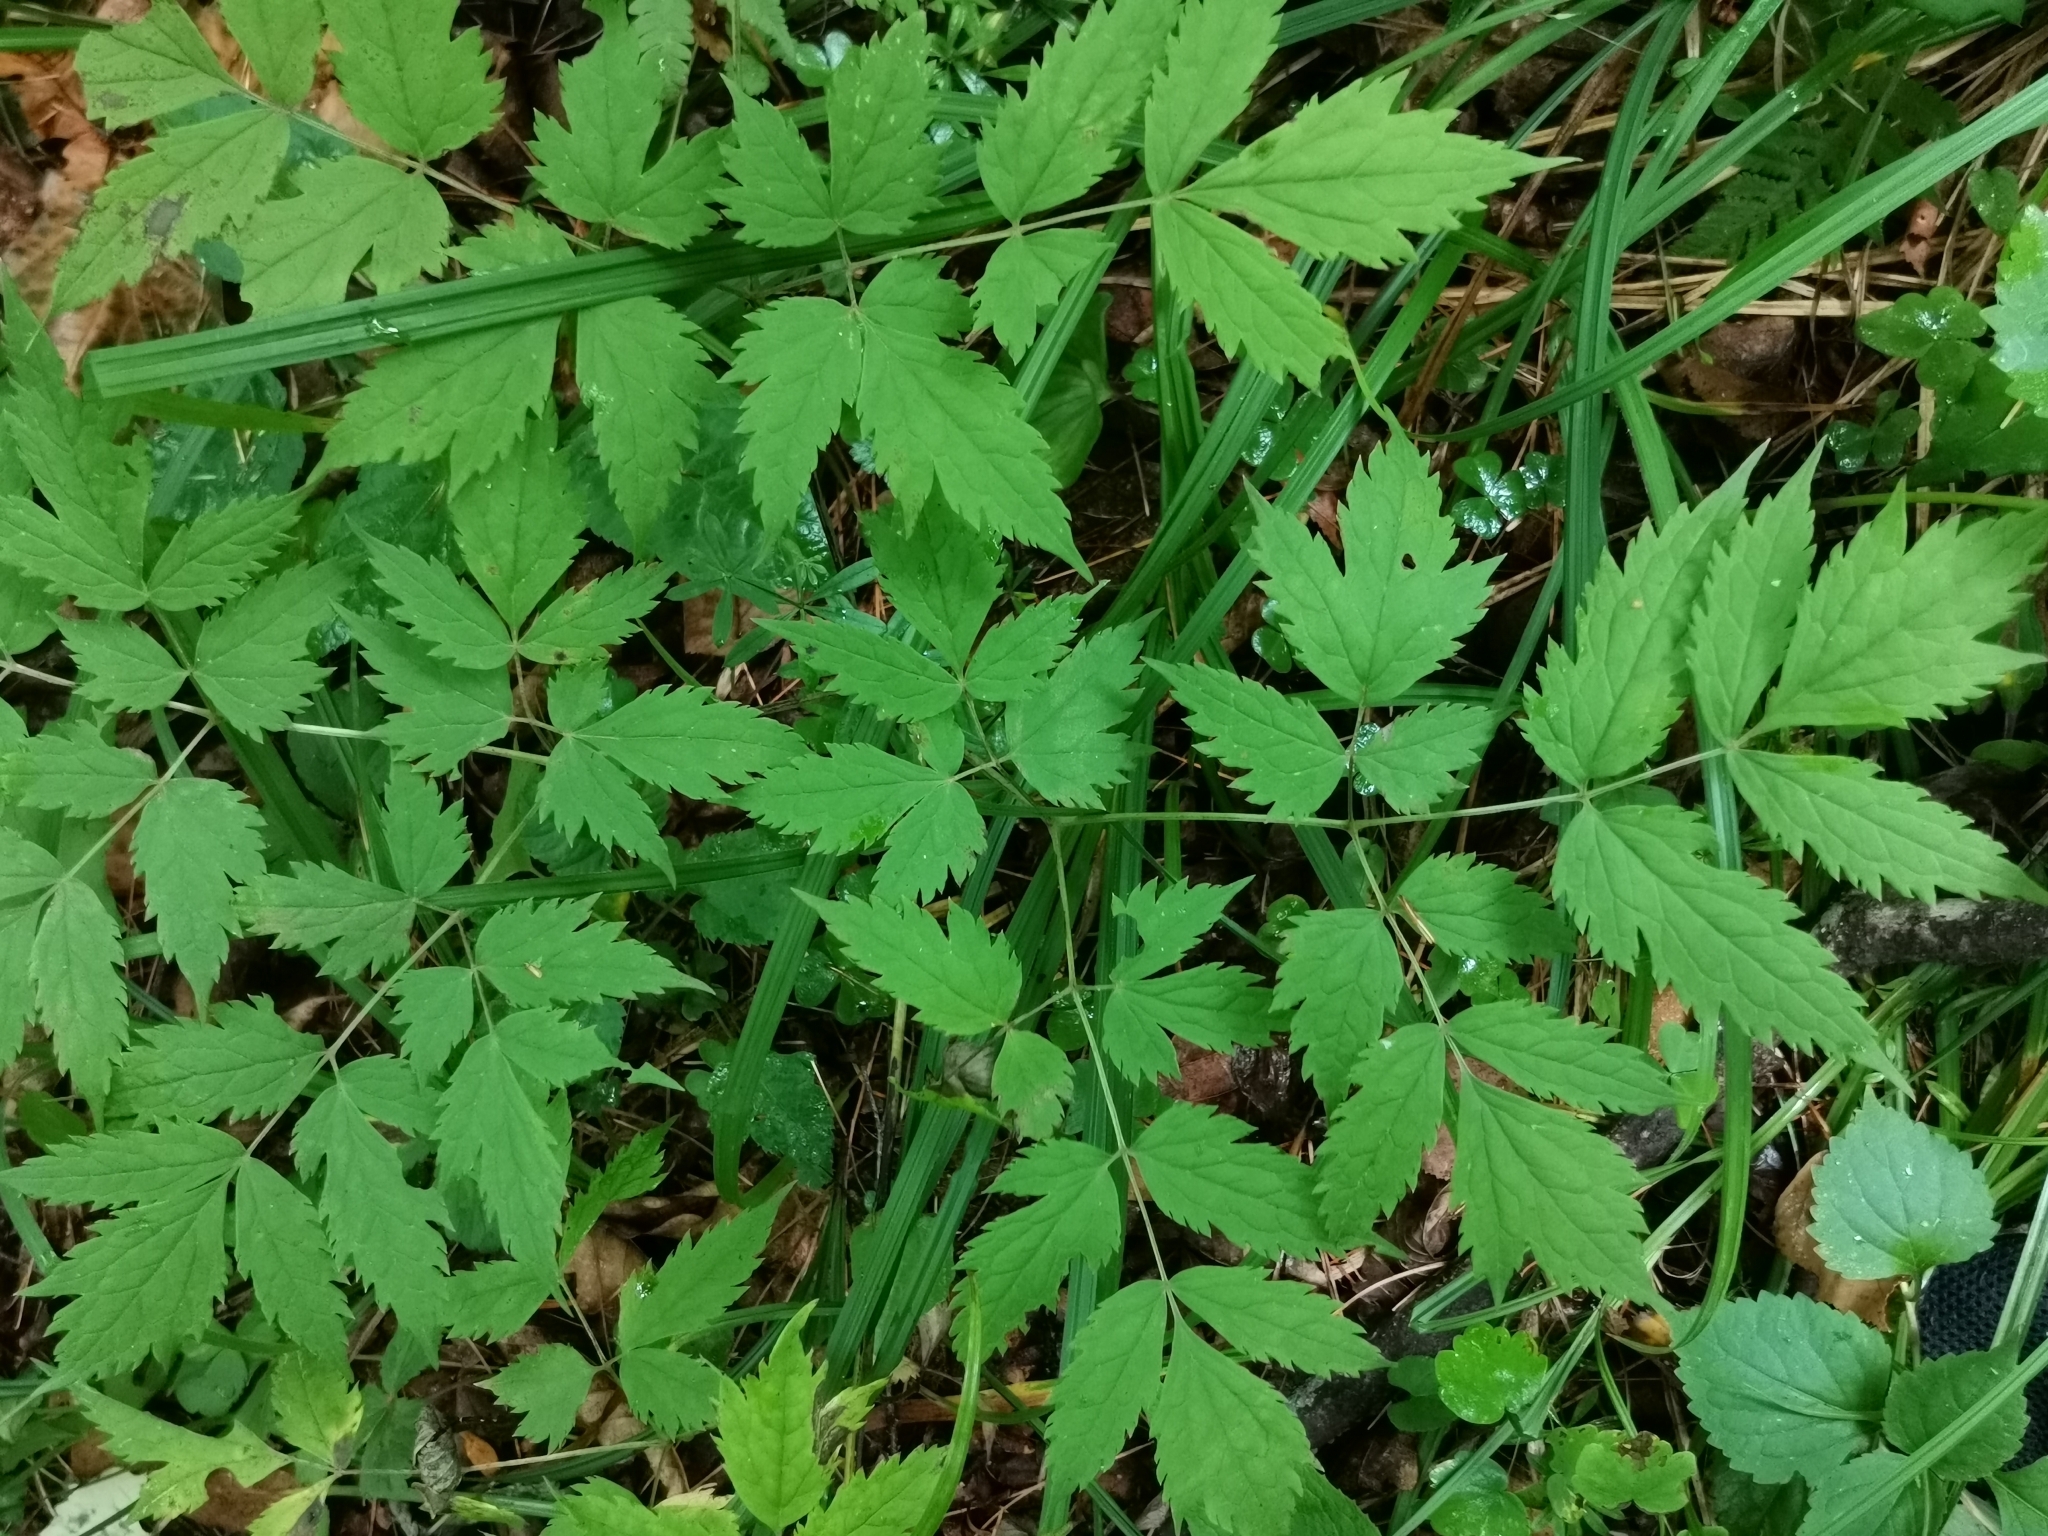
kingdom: Plantae
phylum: Tracheophyta
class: Magnoliopsida
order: Ranunculales
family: Ranunculaceae
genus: Actaea
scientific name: Actaea spicata
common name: Baneberry
